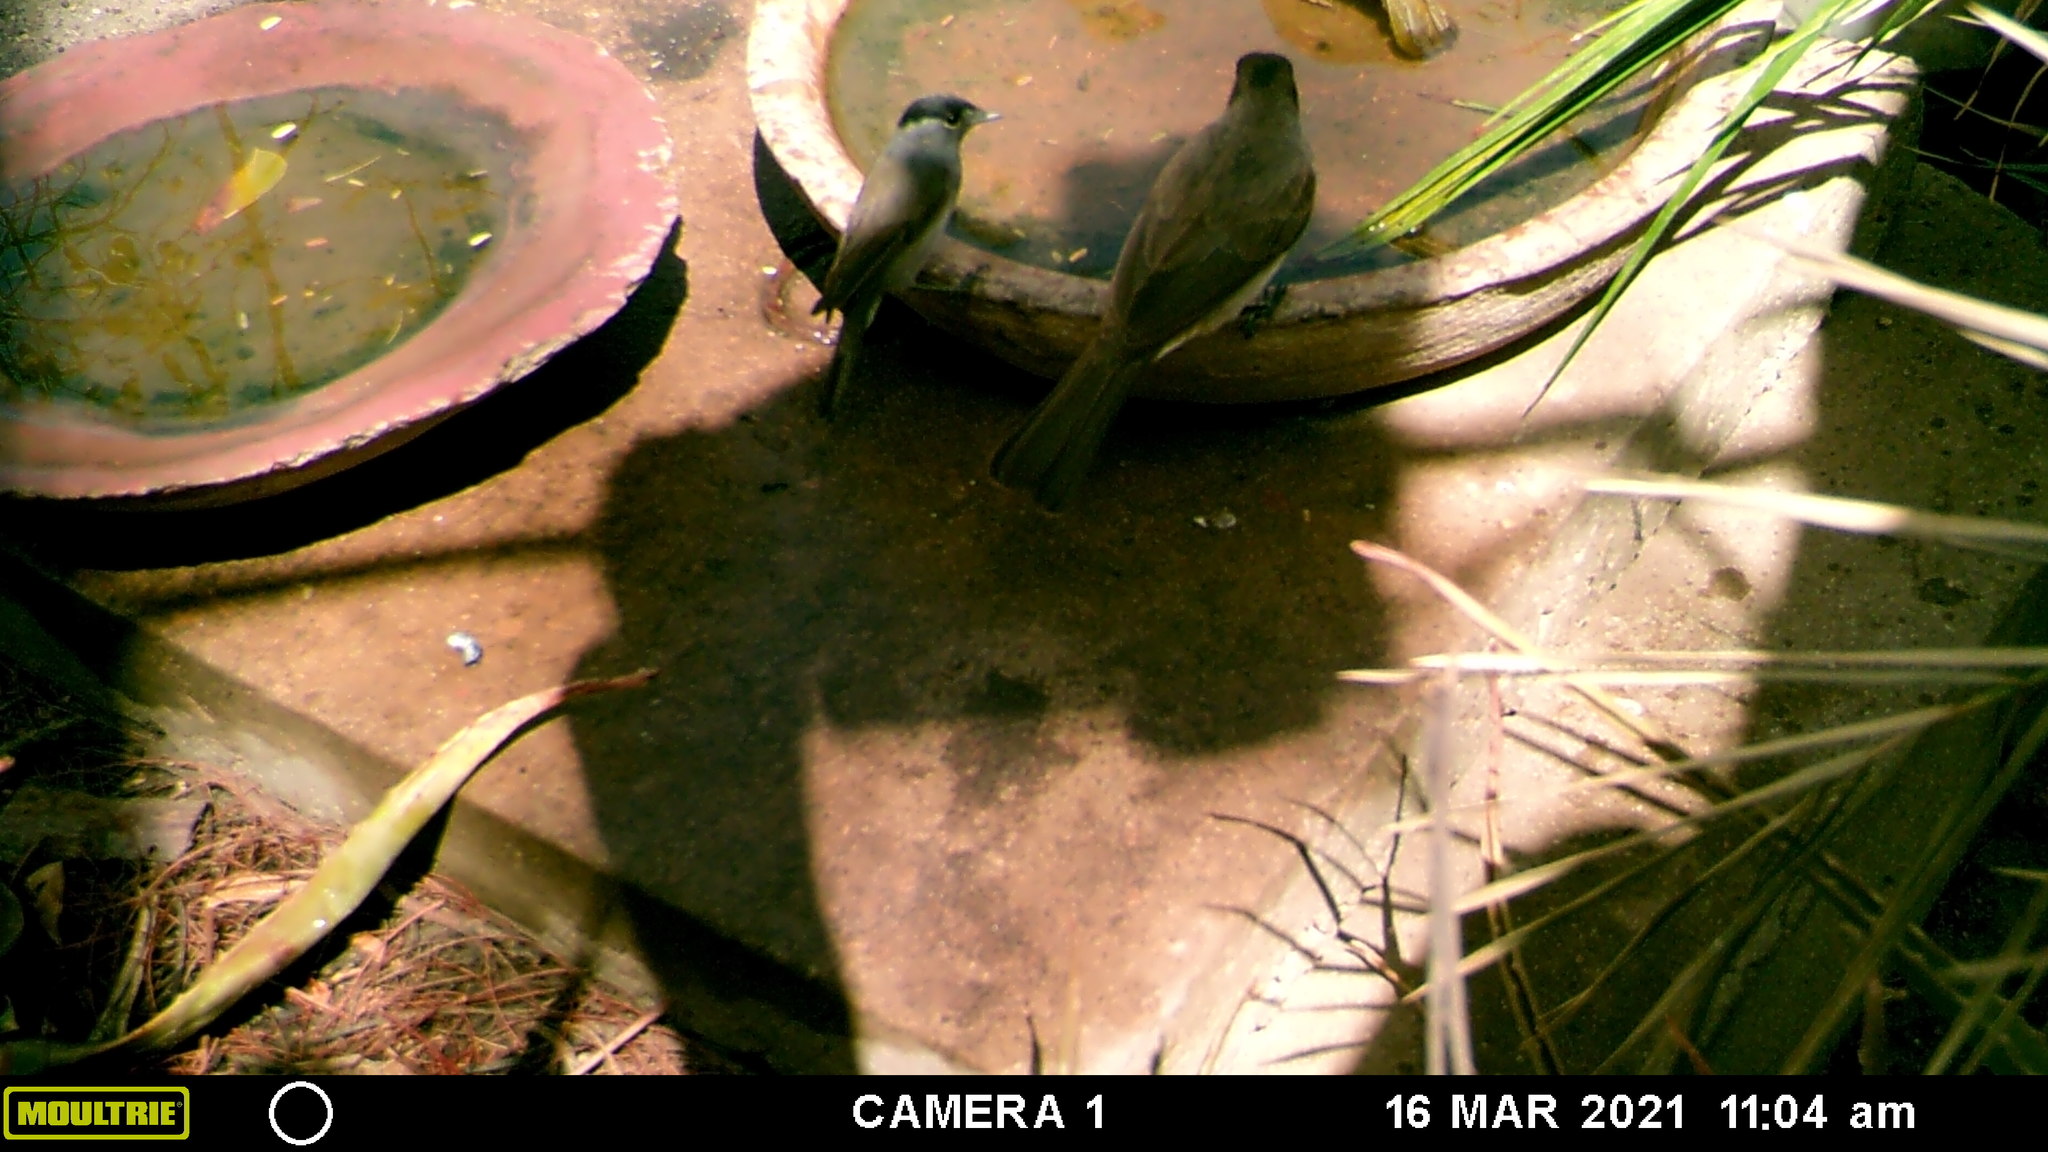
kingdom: Animalia
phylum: Chordata
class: Aves
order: Passeriformes
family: Sylviidae
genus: Sylvia
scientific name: Sylvia atricapilla
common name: Eurasian blackcap
